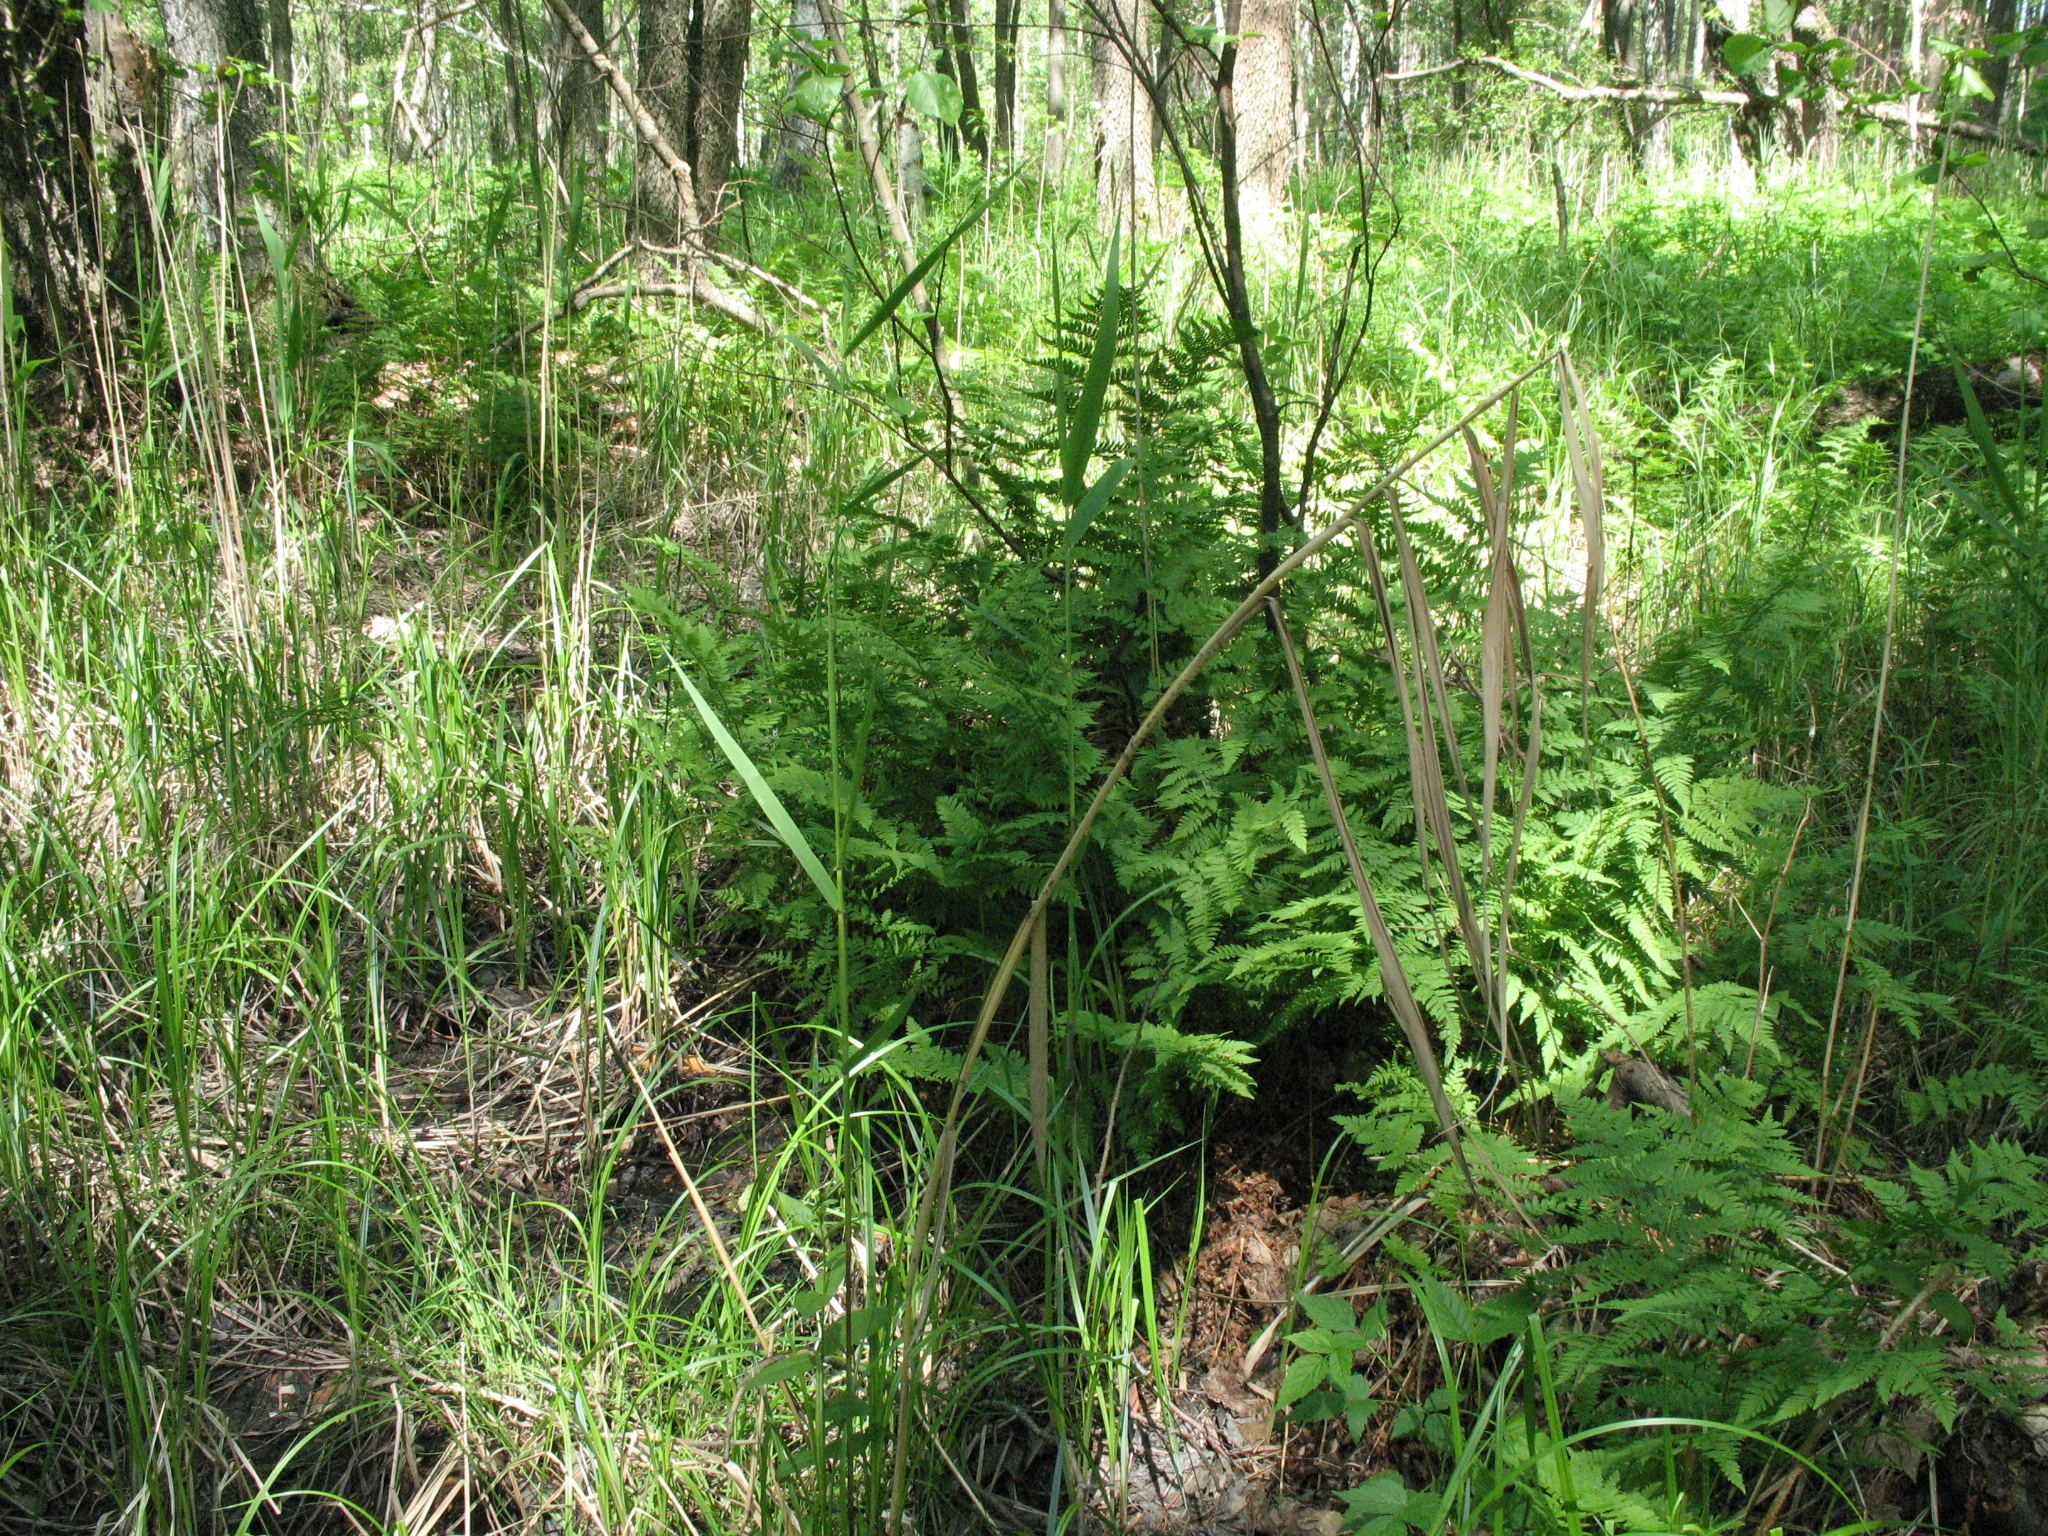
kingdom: Plantae
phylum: Tracheophyta
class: Polypodiopsida
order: Polypodiales
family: Athyriaceae
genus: Athyrium
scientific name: Athyrium filix-femina
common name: Lady fern
